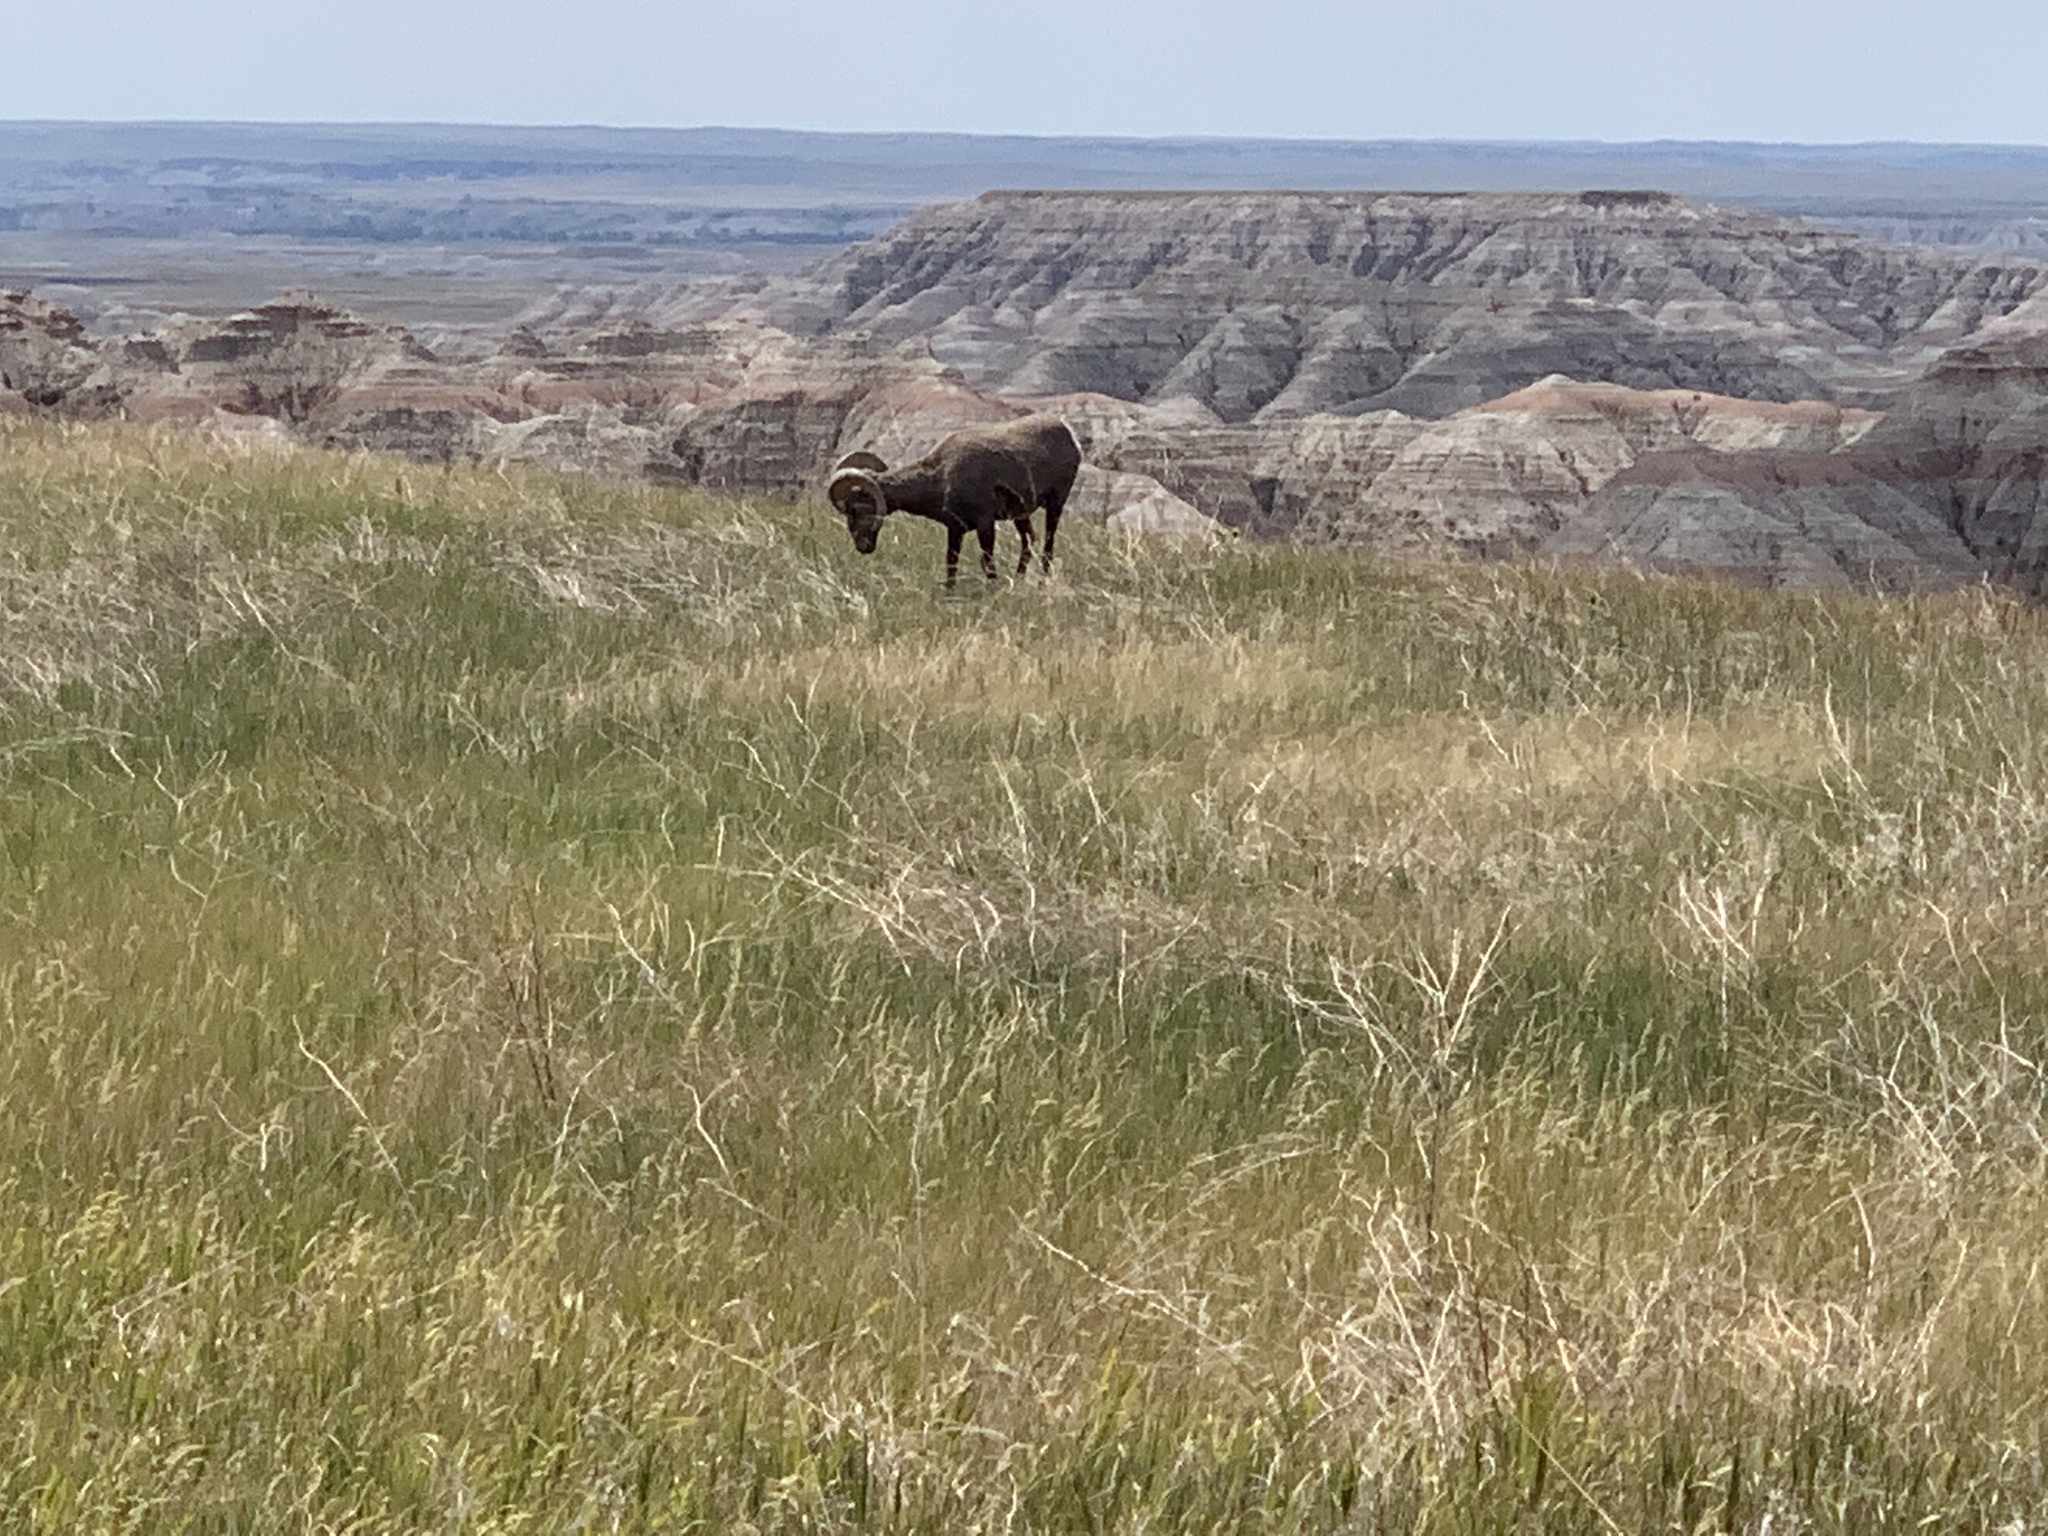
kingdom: Animalia
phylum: Chordata
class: Mammalia
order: Artiodactyla
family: Bovidae
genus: Ovis
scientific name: Ovis canadensis
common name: Bighorn sheep
